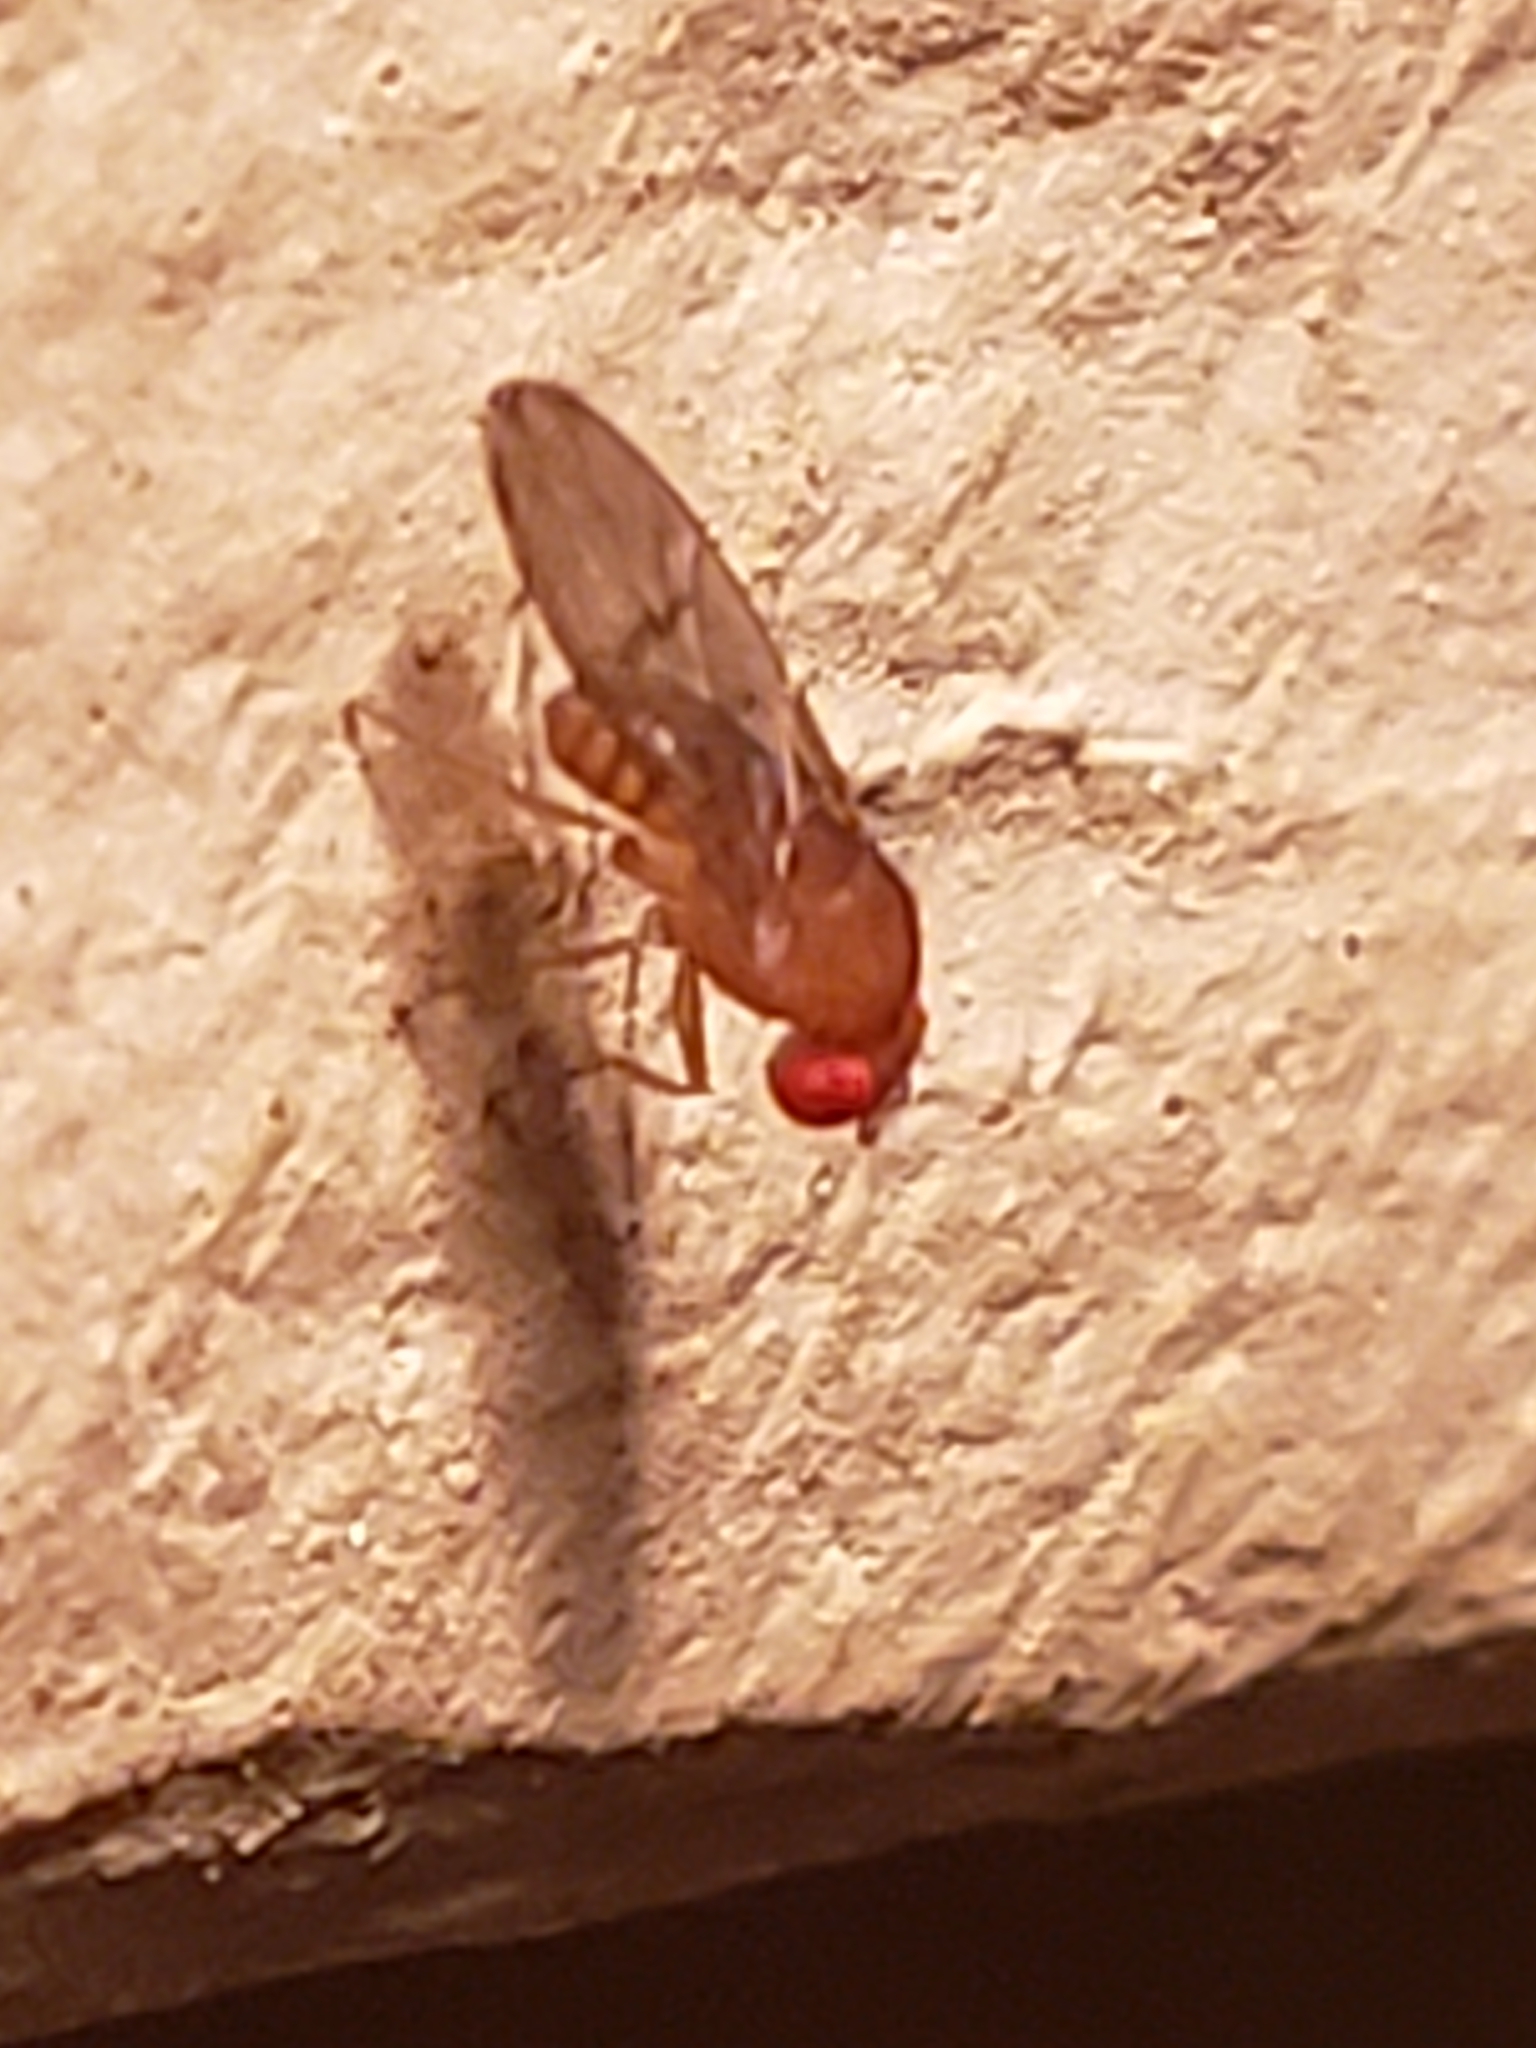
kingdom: Animalia
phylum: Arthropoda
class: Insecta
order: Diptera
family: Drosophilidae
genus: Drosophila
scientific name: Drosophila immigrans
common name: Pomace fly
